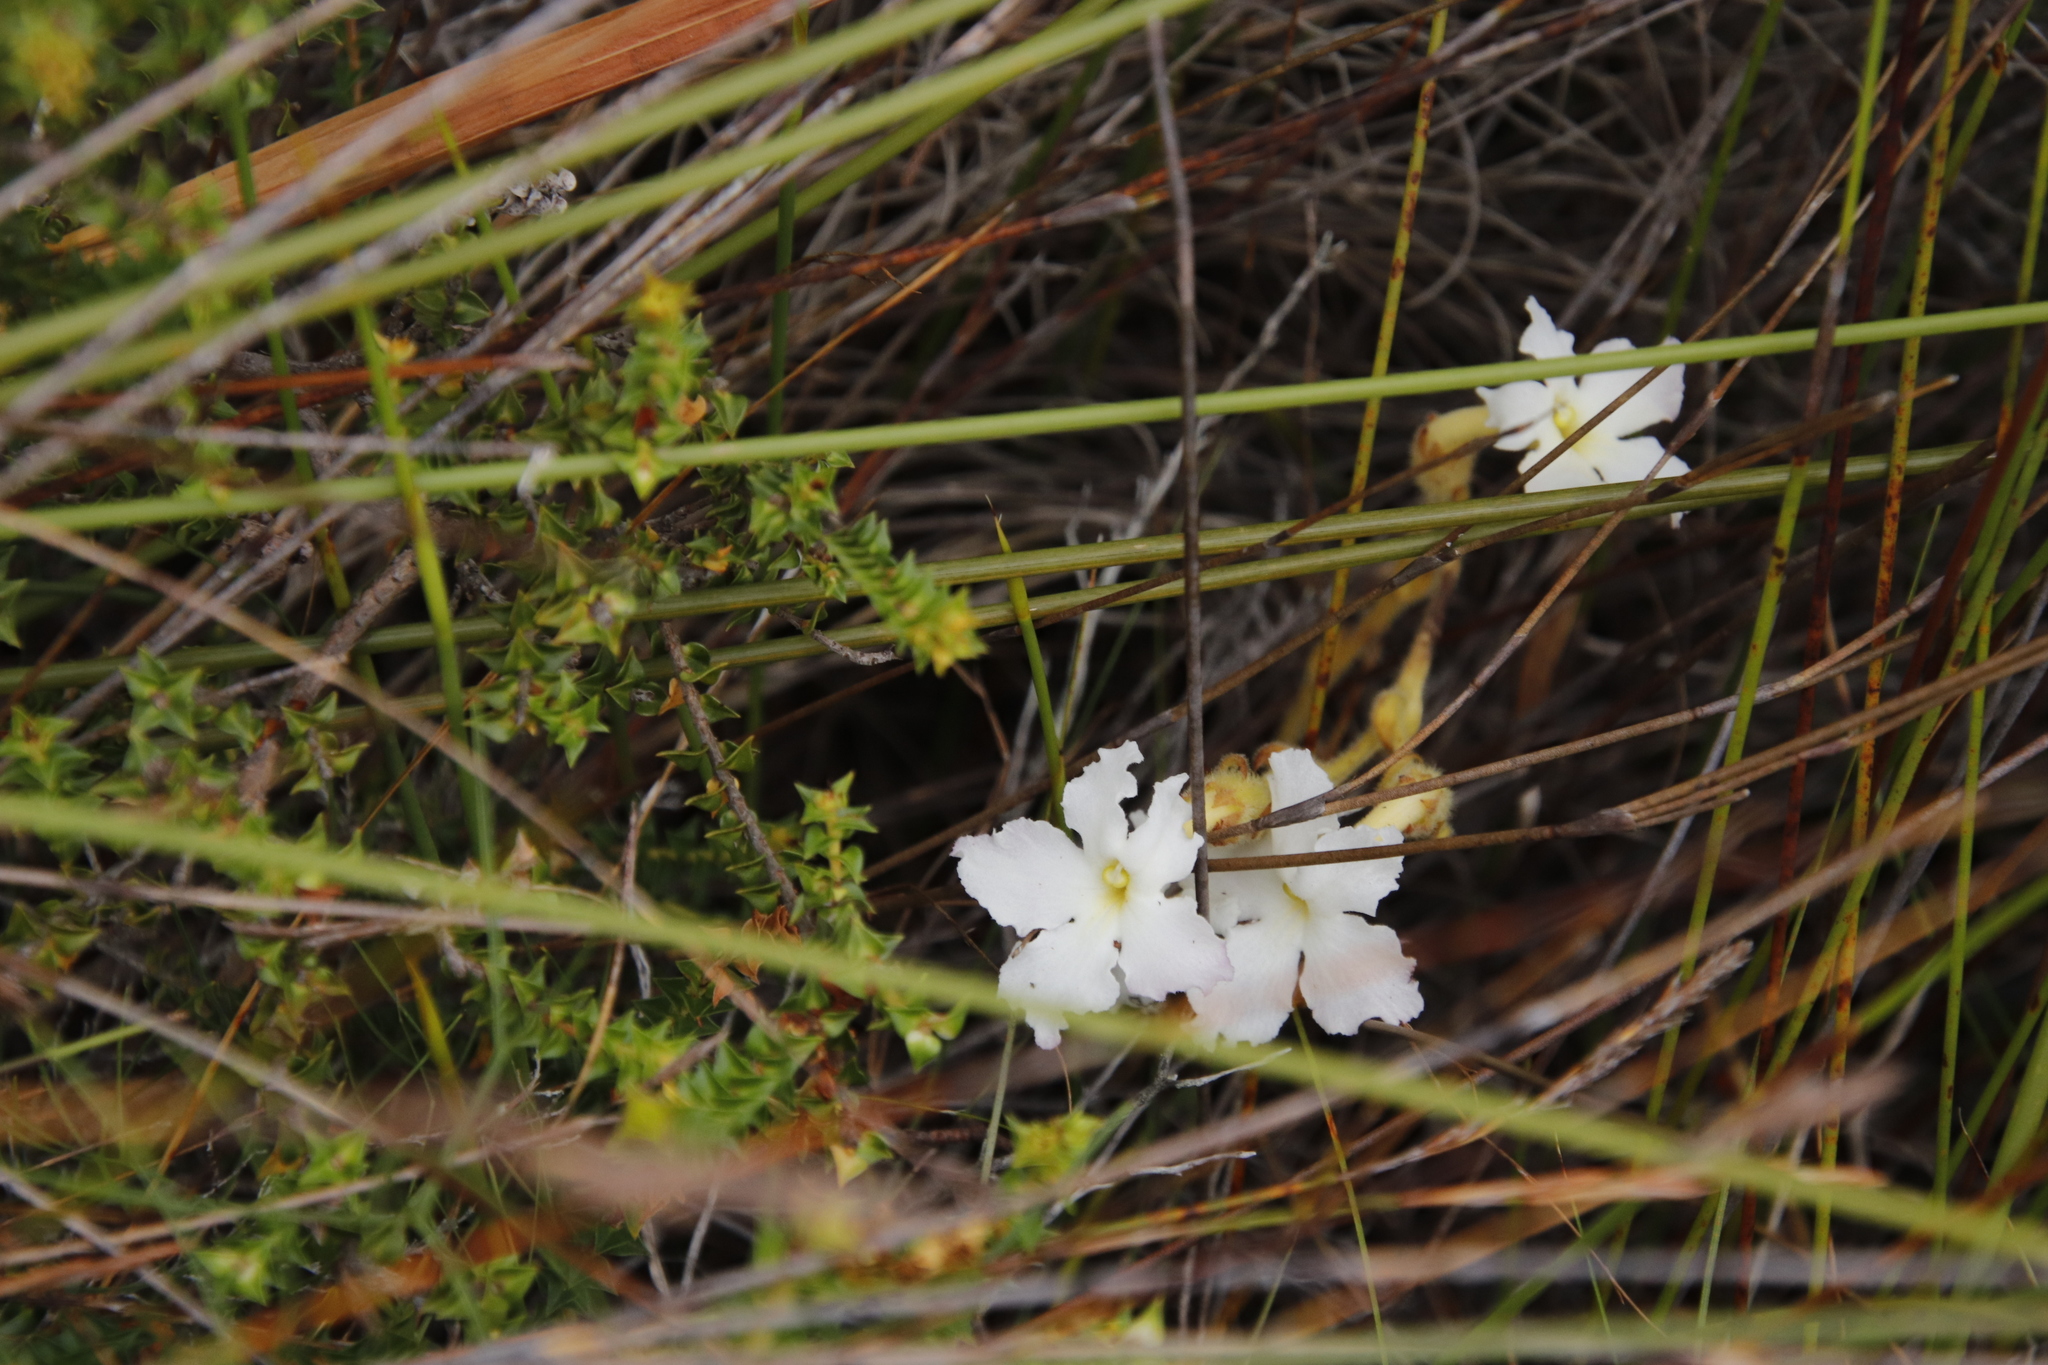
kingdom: Plantae
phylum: Tracheophyta
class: Magnoliopsida
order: Lamiales
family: Orobanchaceae
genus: Harveya
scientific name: Harveya capensis
